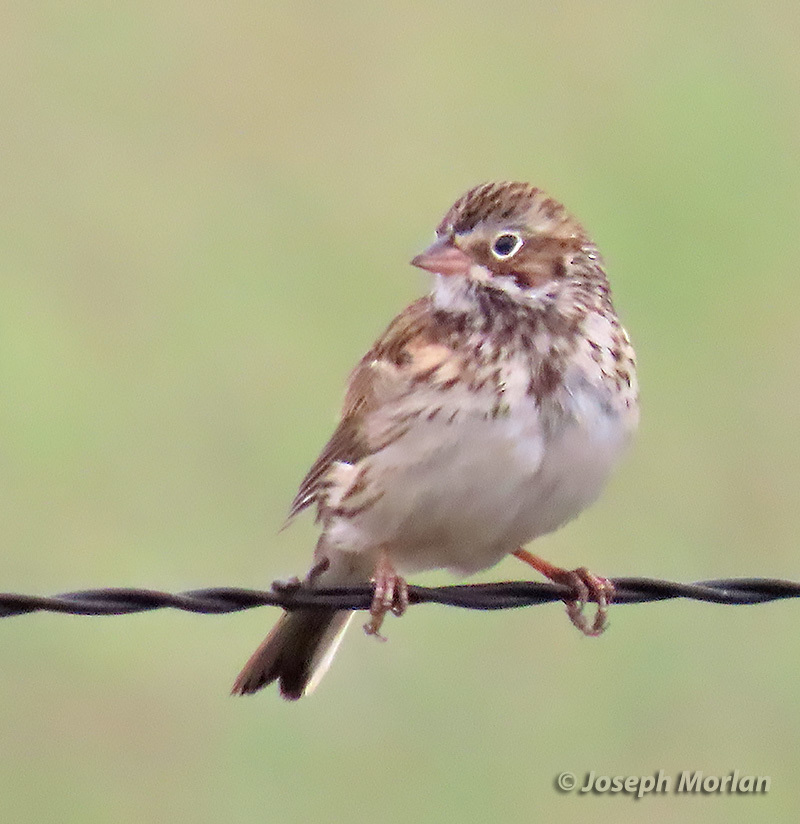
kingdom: Animalia
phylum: Chordata
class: Aves
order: Passeriformes
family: Passerellidae
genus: Pooecetes
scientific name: Pooecetes gramineus
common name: Vesper sparrow
